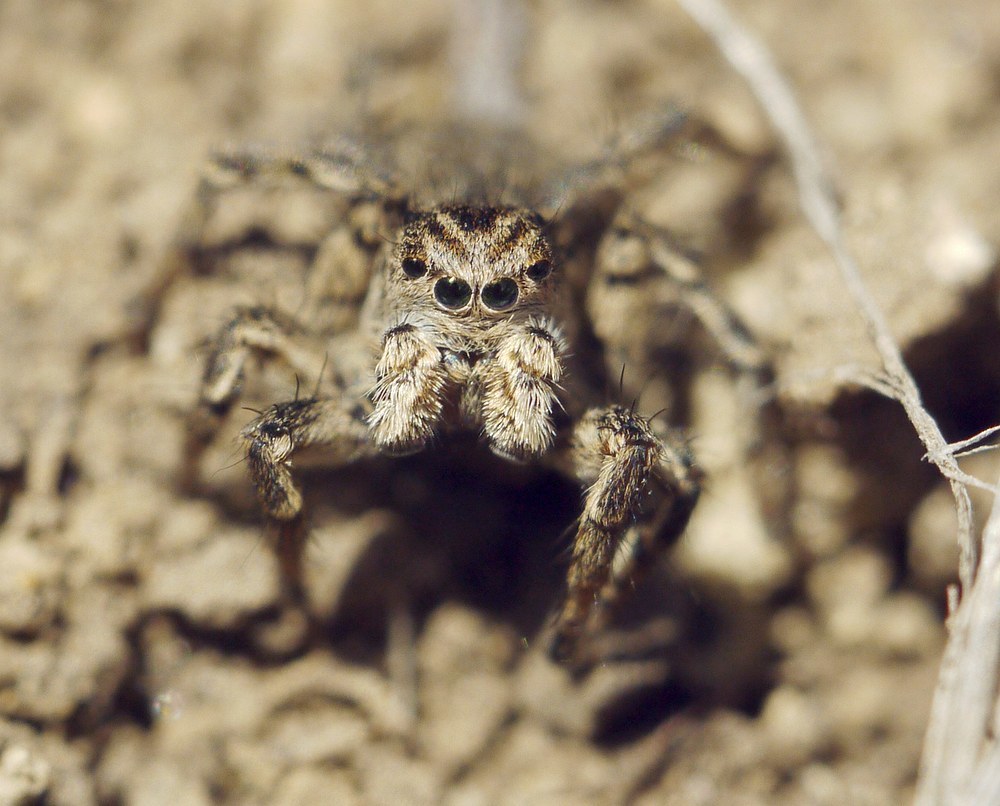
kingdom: Animalia
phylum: Arthropoda
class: Arachnida
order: Araneae
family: Salticidae
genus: Aelurillus
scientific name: Aelurillus v-insignitus
